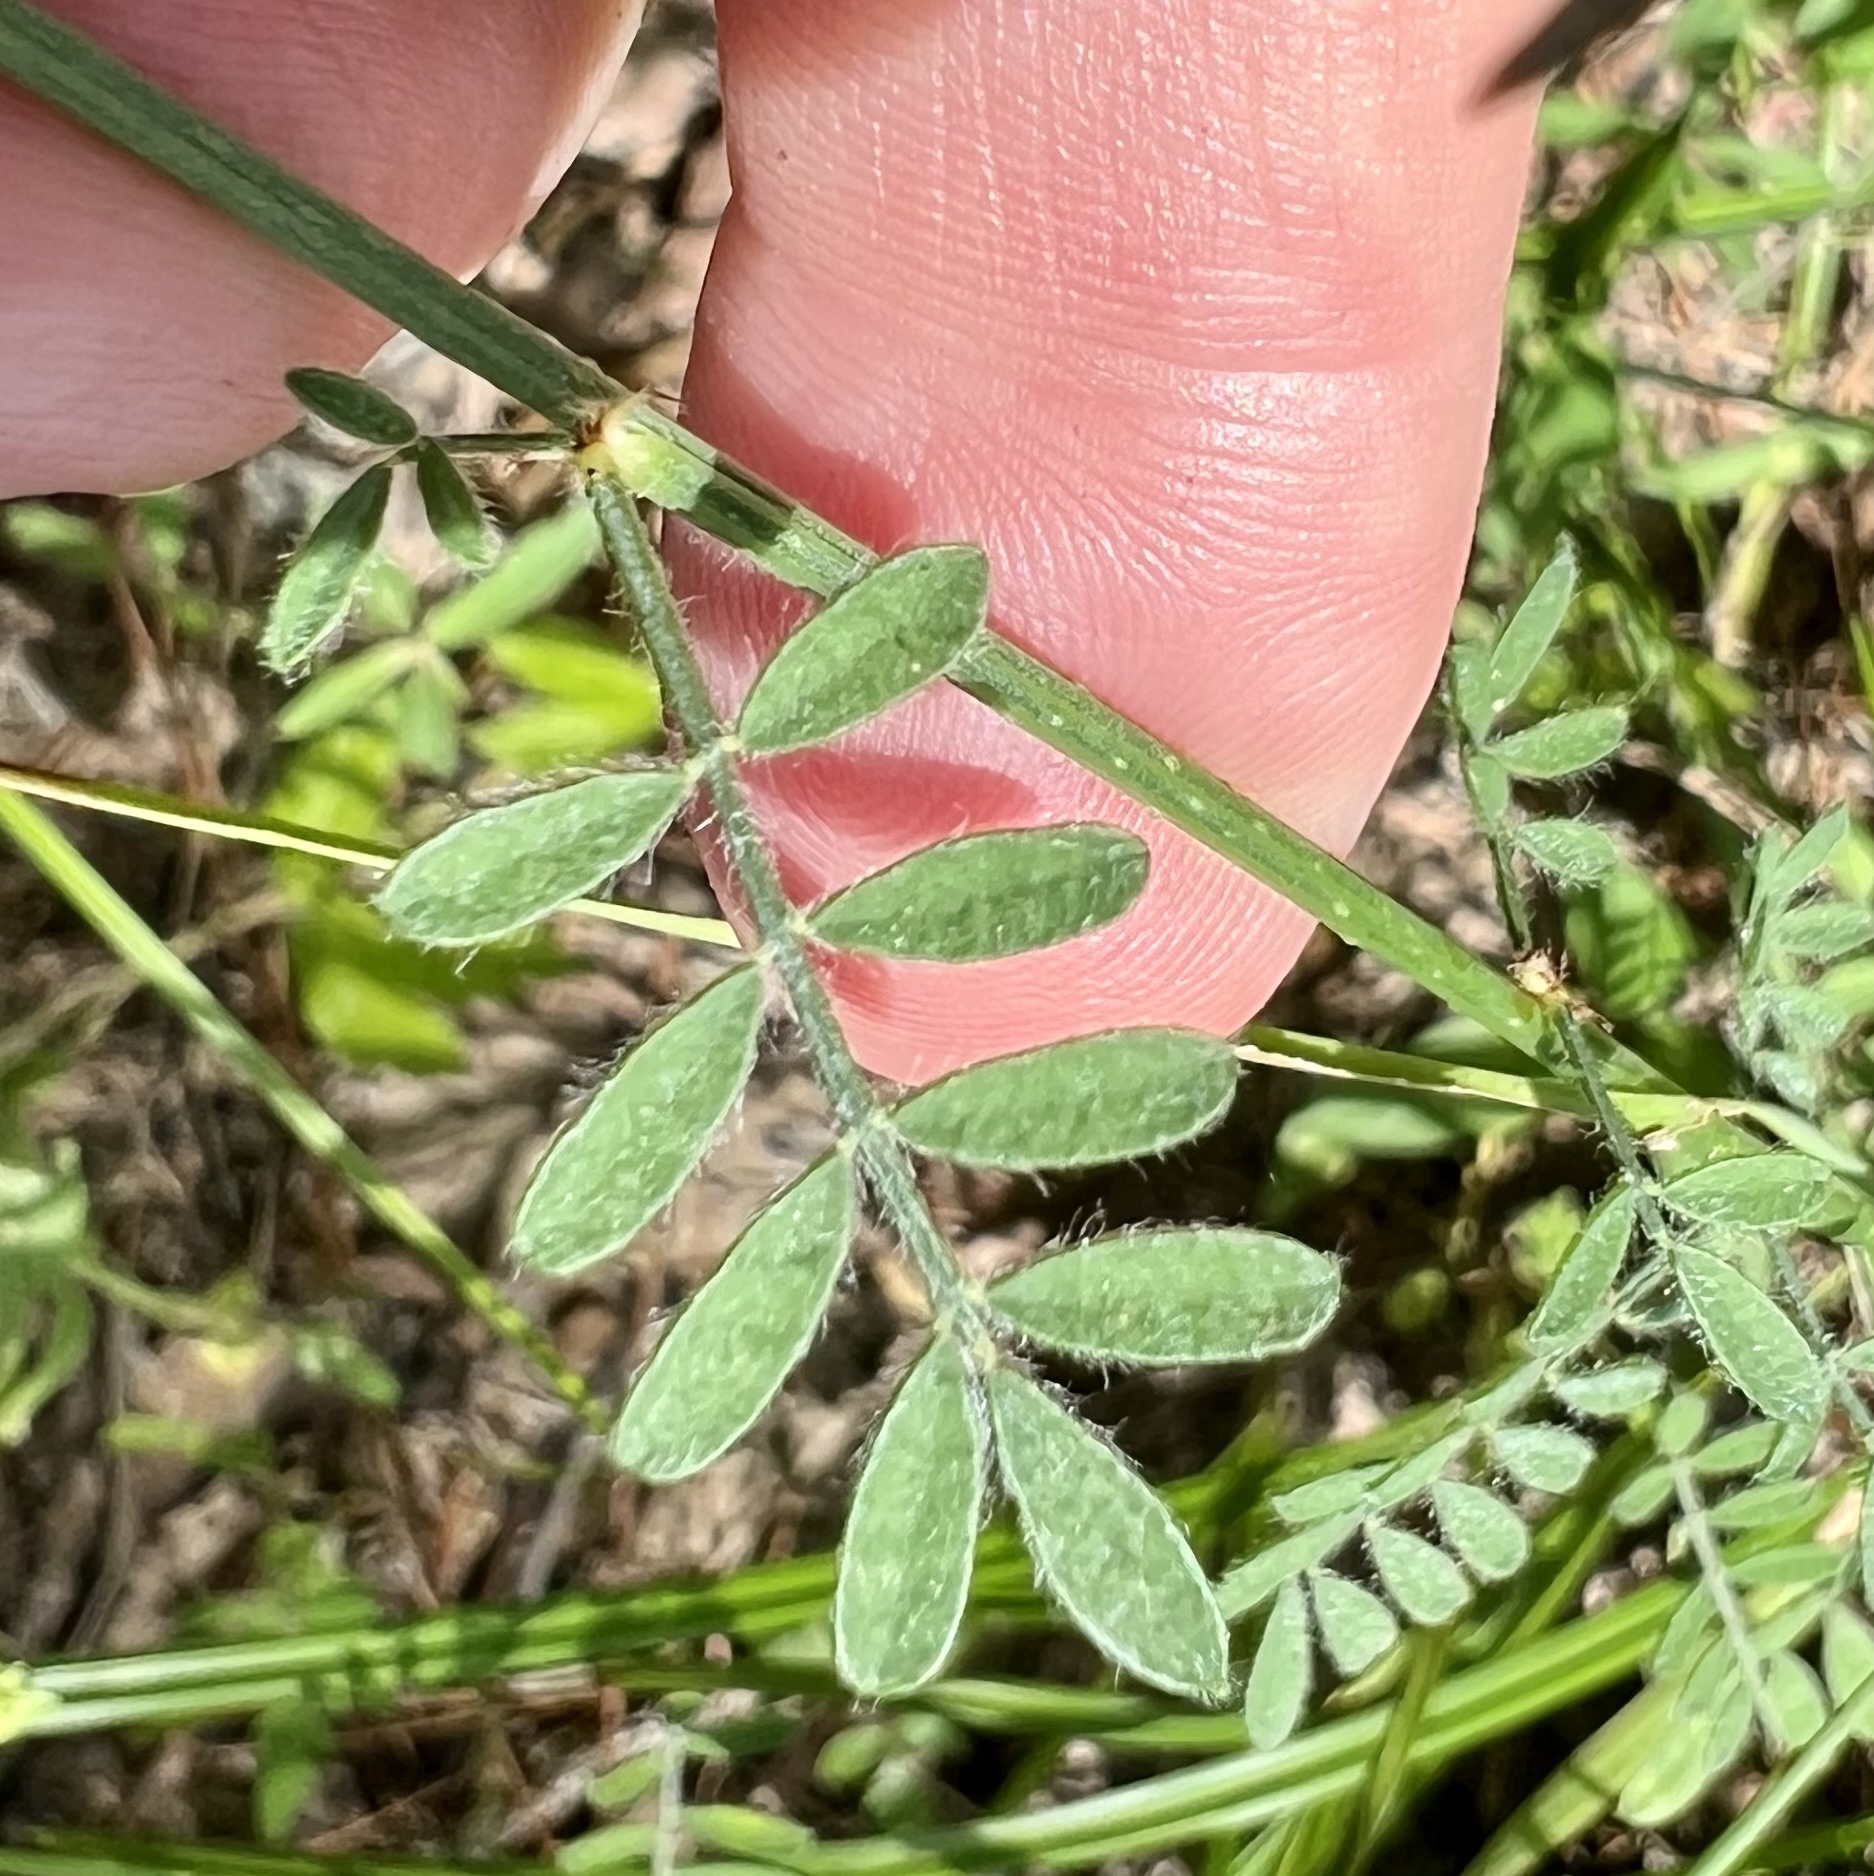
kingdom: Plantae
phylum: Tracheophyta
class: Magnoliopsida
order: Fabales
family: Fabaceae
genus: Dalea
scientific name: Dalea phleoides
